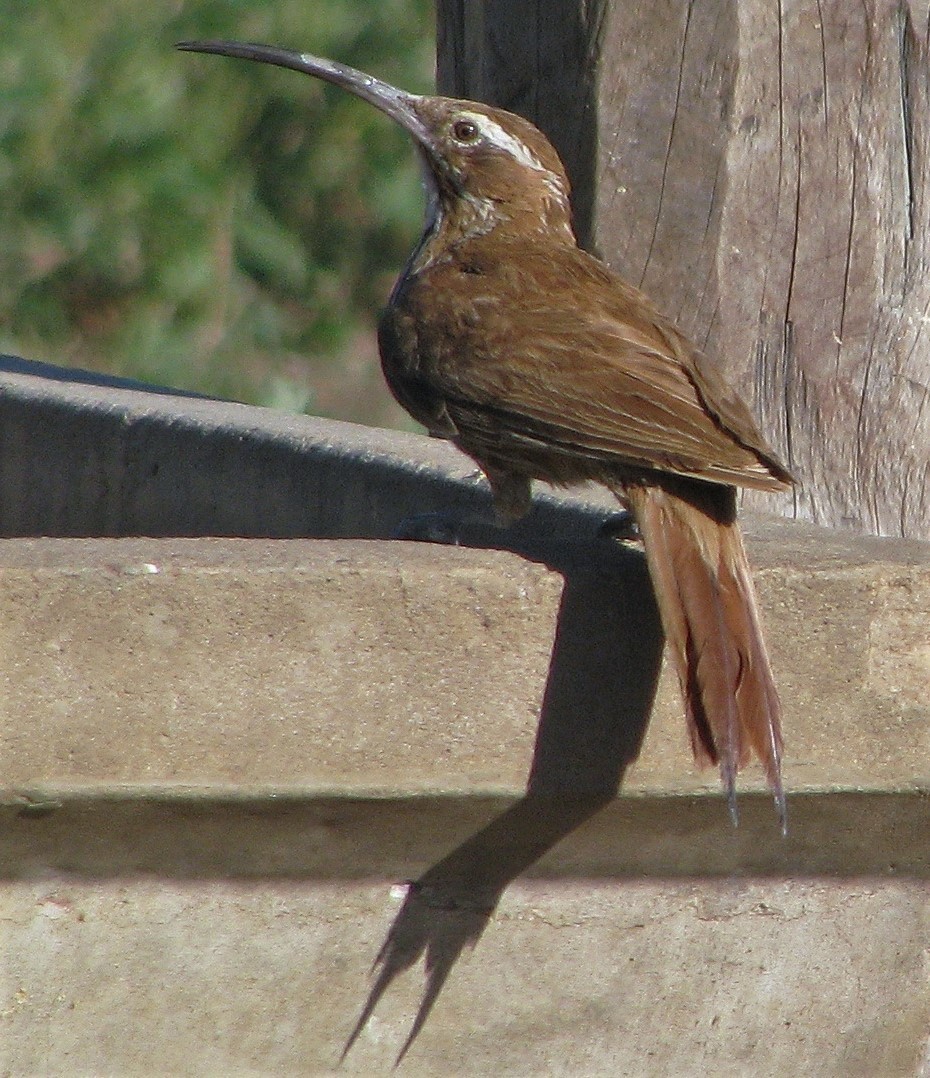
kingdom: Animalia
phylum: Chordata
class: Aves
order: Passeriformes
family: Furnariidae
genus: Drymornis
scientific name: Drymornis bridgesii
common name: Scimitar-billed woodcreeper
